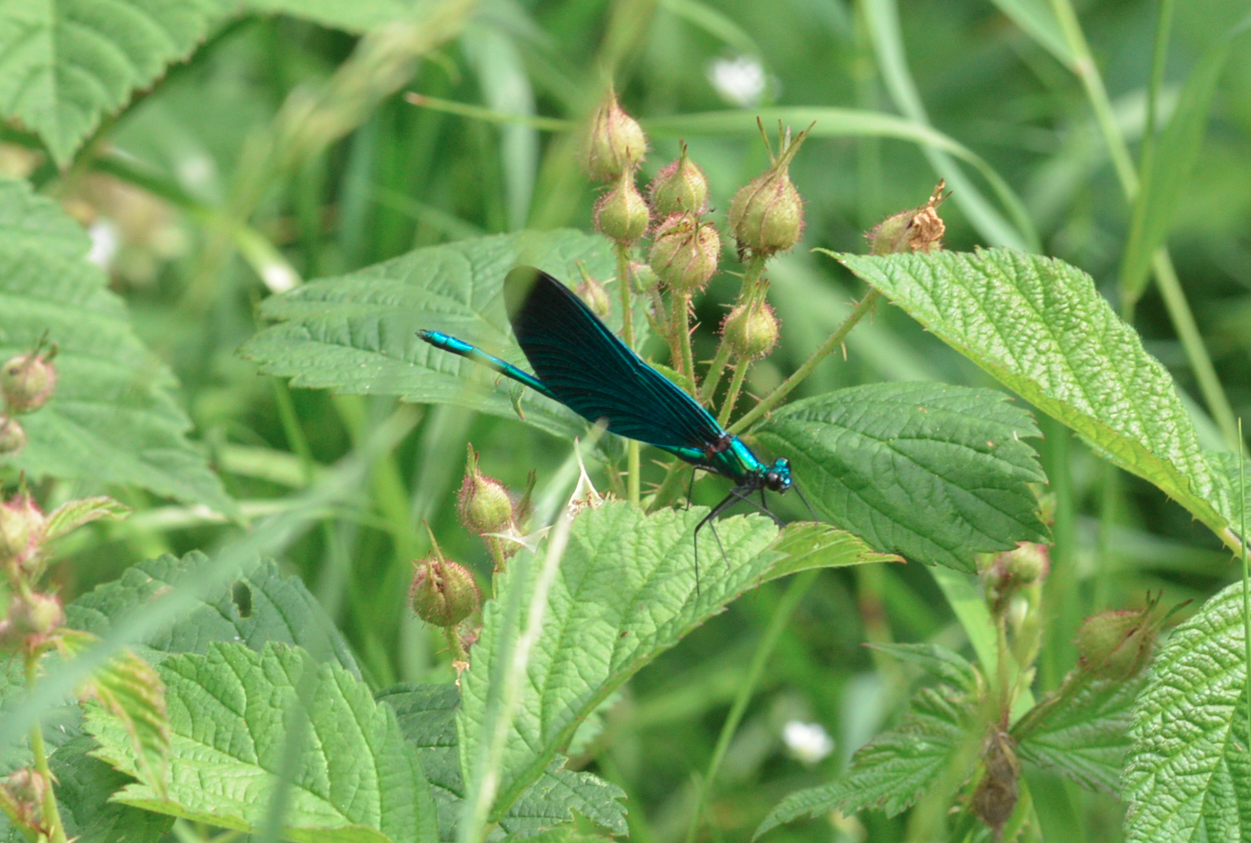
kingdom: Animalia
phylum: Arthropoda
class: Insecta
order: Odonata
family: Calopterygidae
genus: Calopteryx
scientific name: Calopteryx virgo
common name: Beautiful demoiselle
